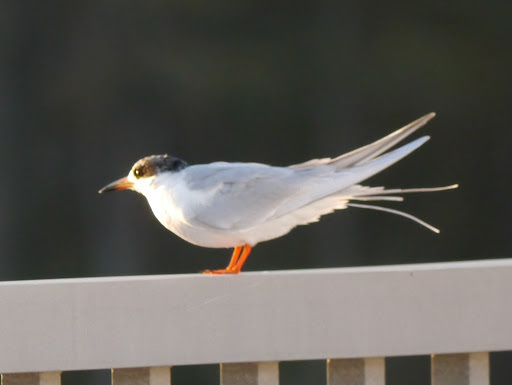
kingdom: Animalia
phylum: Chordata
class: Aves
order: Charadriiformes
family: Laridae
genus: Sterna
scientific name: Sterna forsteri
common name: Forster's tern
